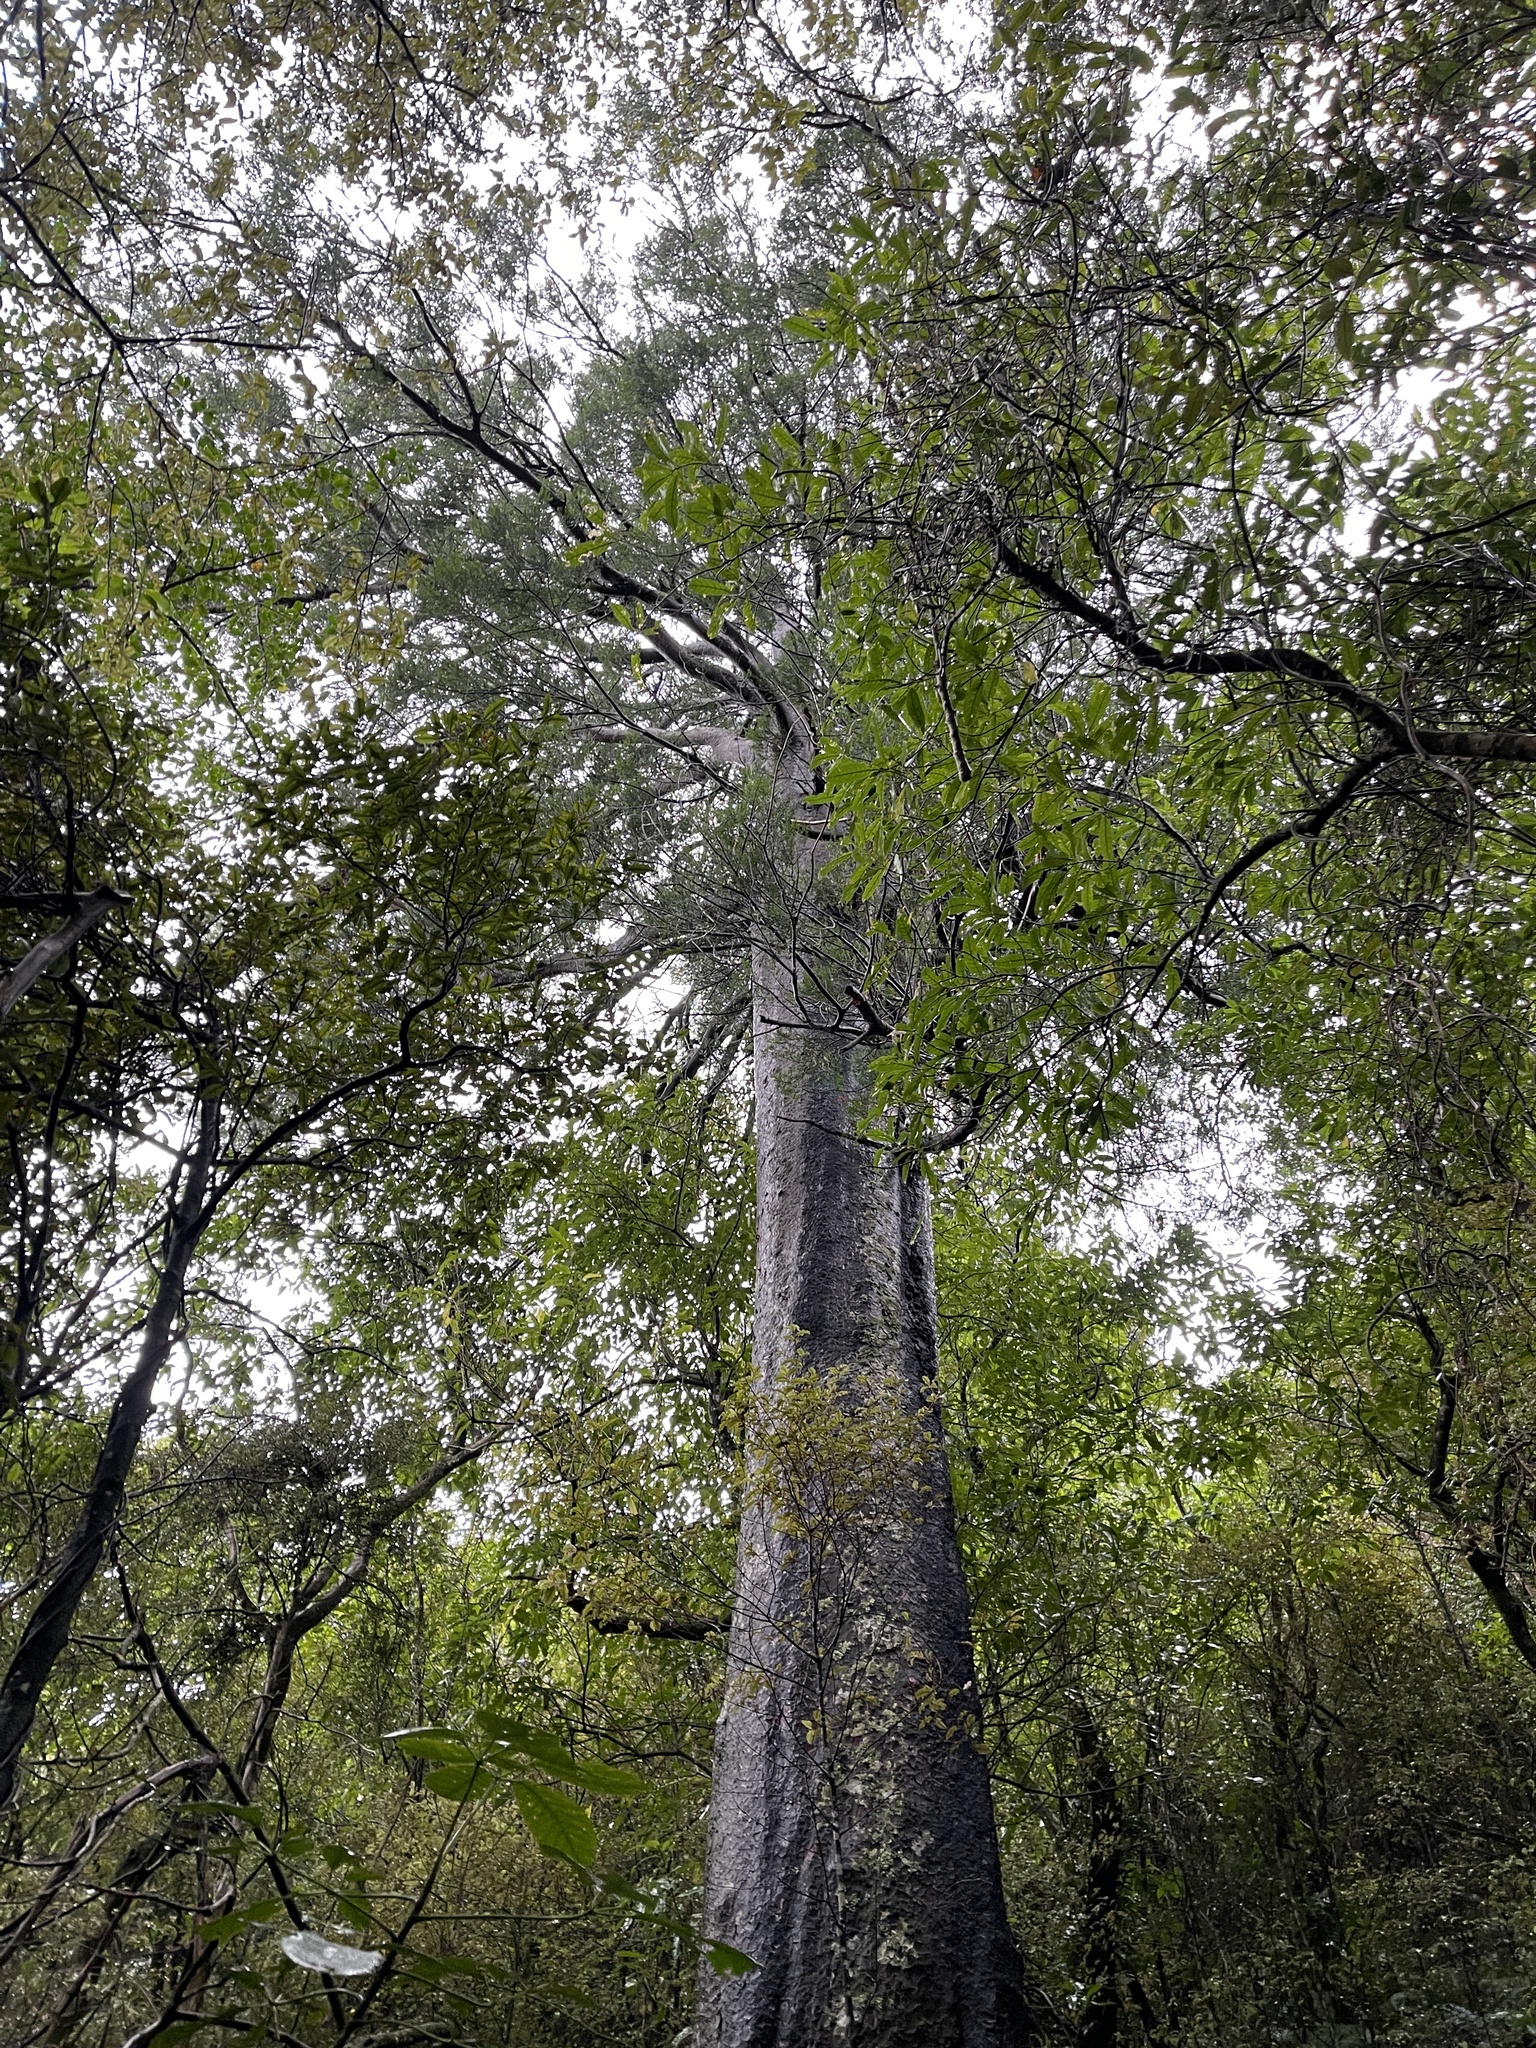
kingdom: Plantae
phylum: Tracheophyta
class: Pinopsida
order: Pinales
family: Podocarpaceae
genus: Prumnopitys
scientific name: Prumnopitys taxifolia
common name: Matai
